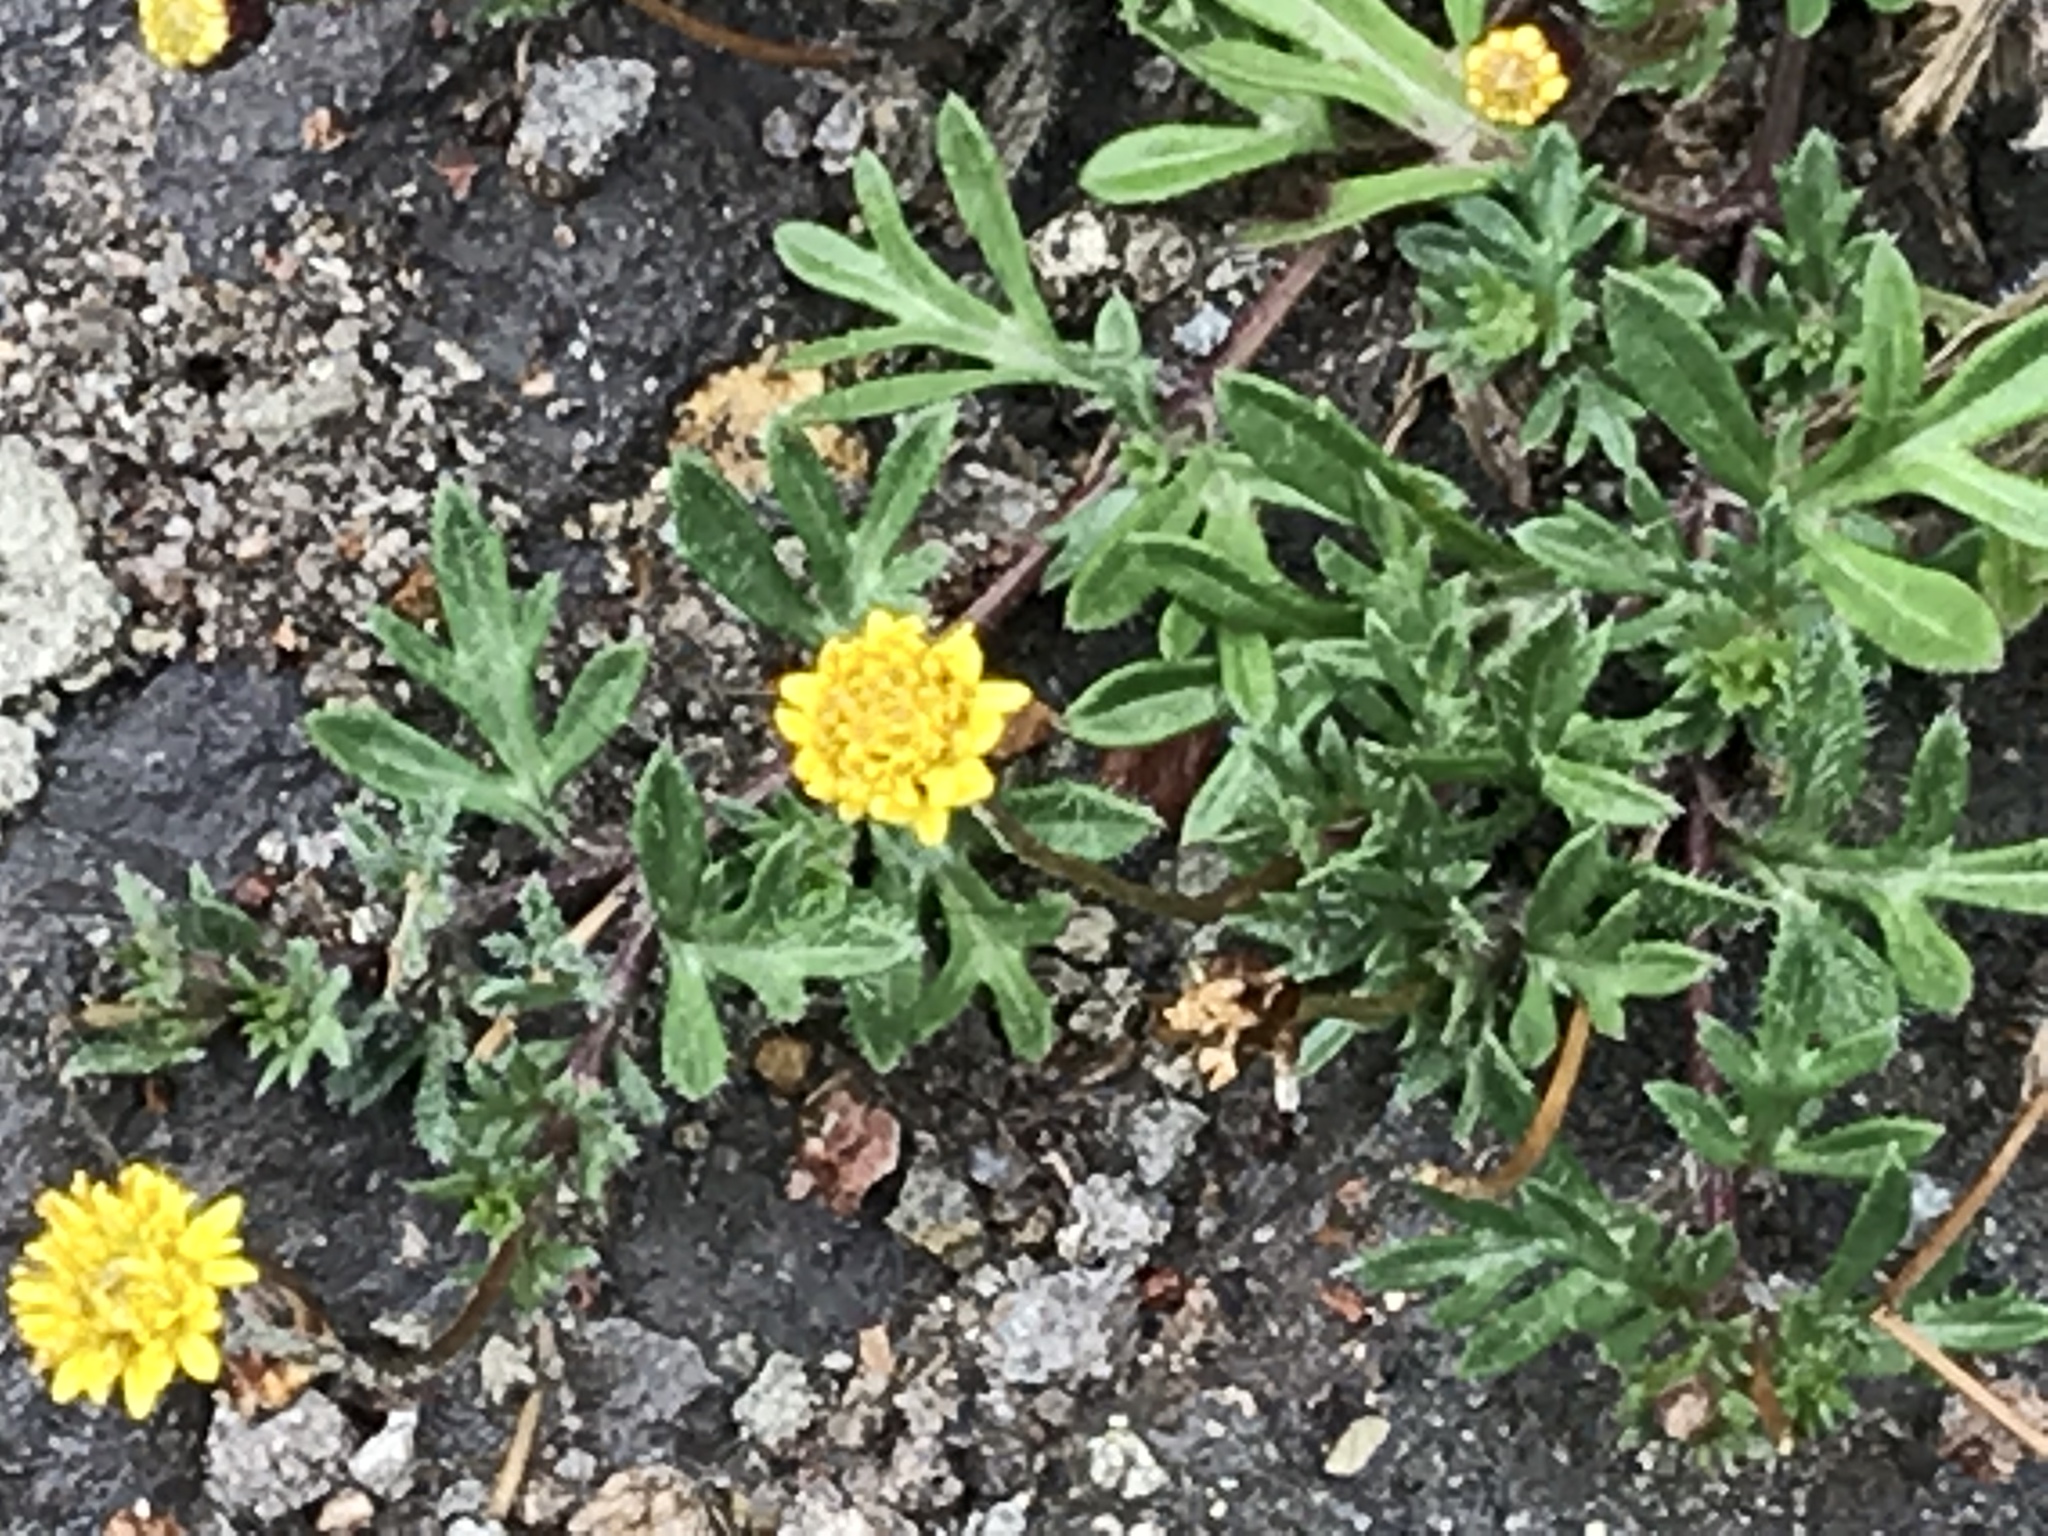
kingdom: Plantae
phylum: Tracheophyta
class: Magnoliopsida
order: Asterales
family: Asteraceae
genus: Tridax
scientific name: Tridax coronopifolia
